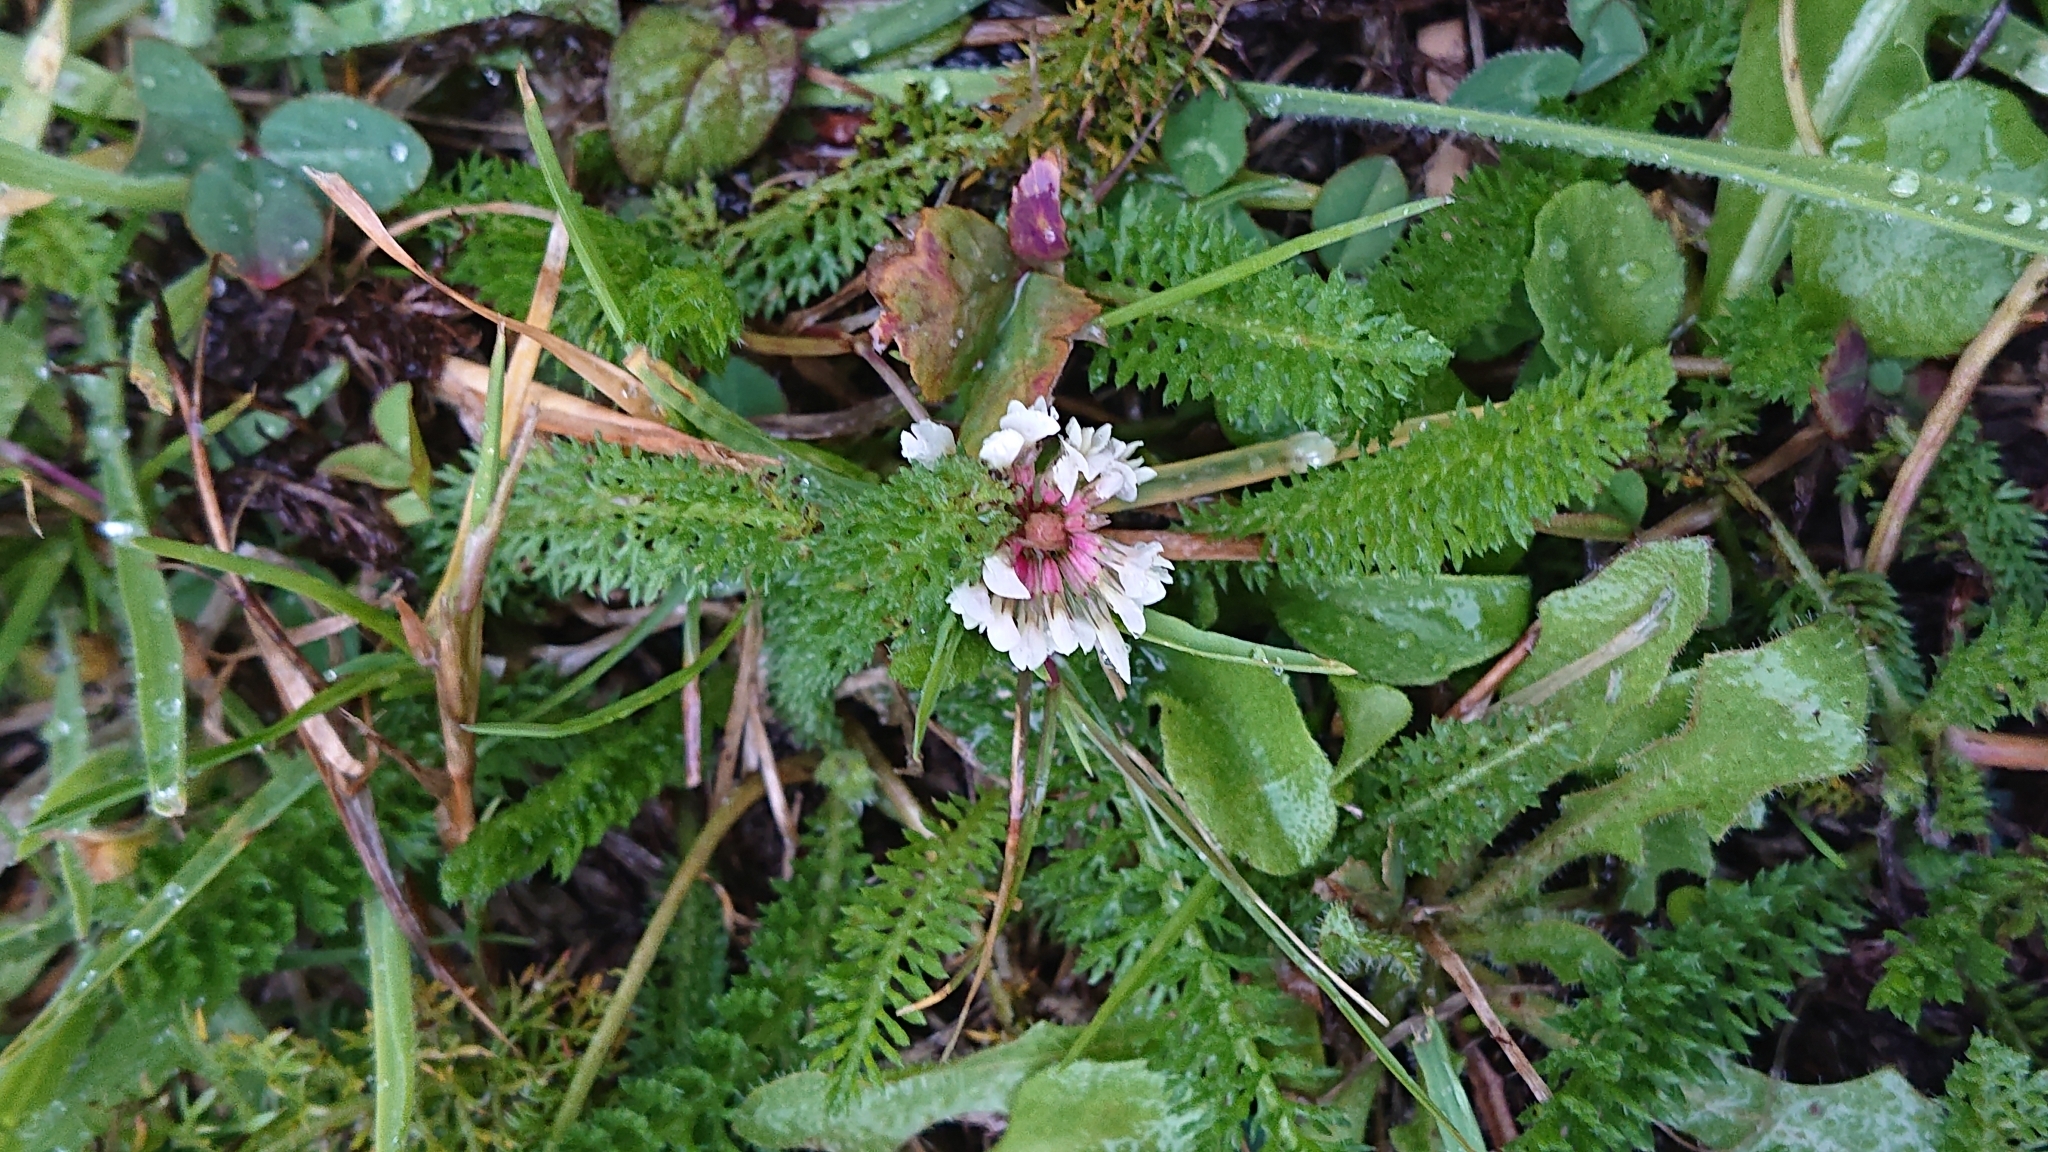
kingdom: Plantae
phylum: Tracheophyta
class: Magnoliopsida
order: Fabales
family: Fabaceae
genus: Trifolium
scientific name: Trifolium repens
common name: White clover
